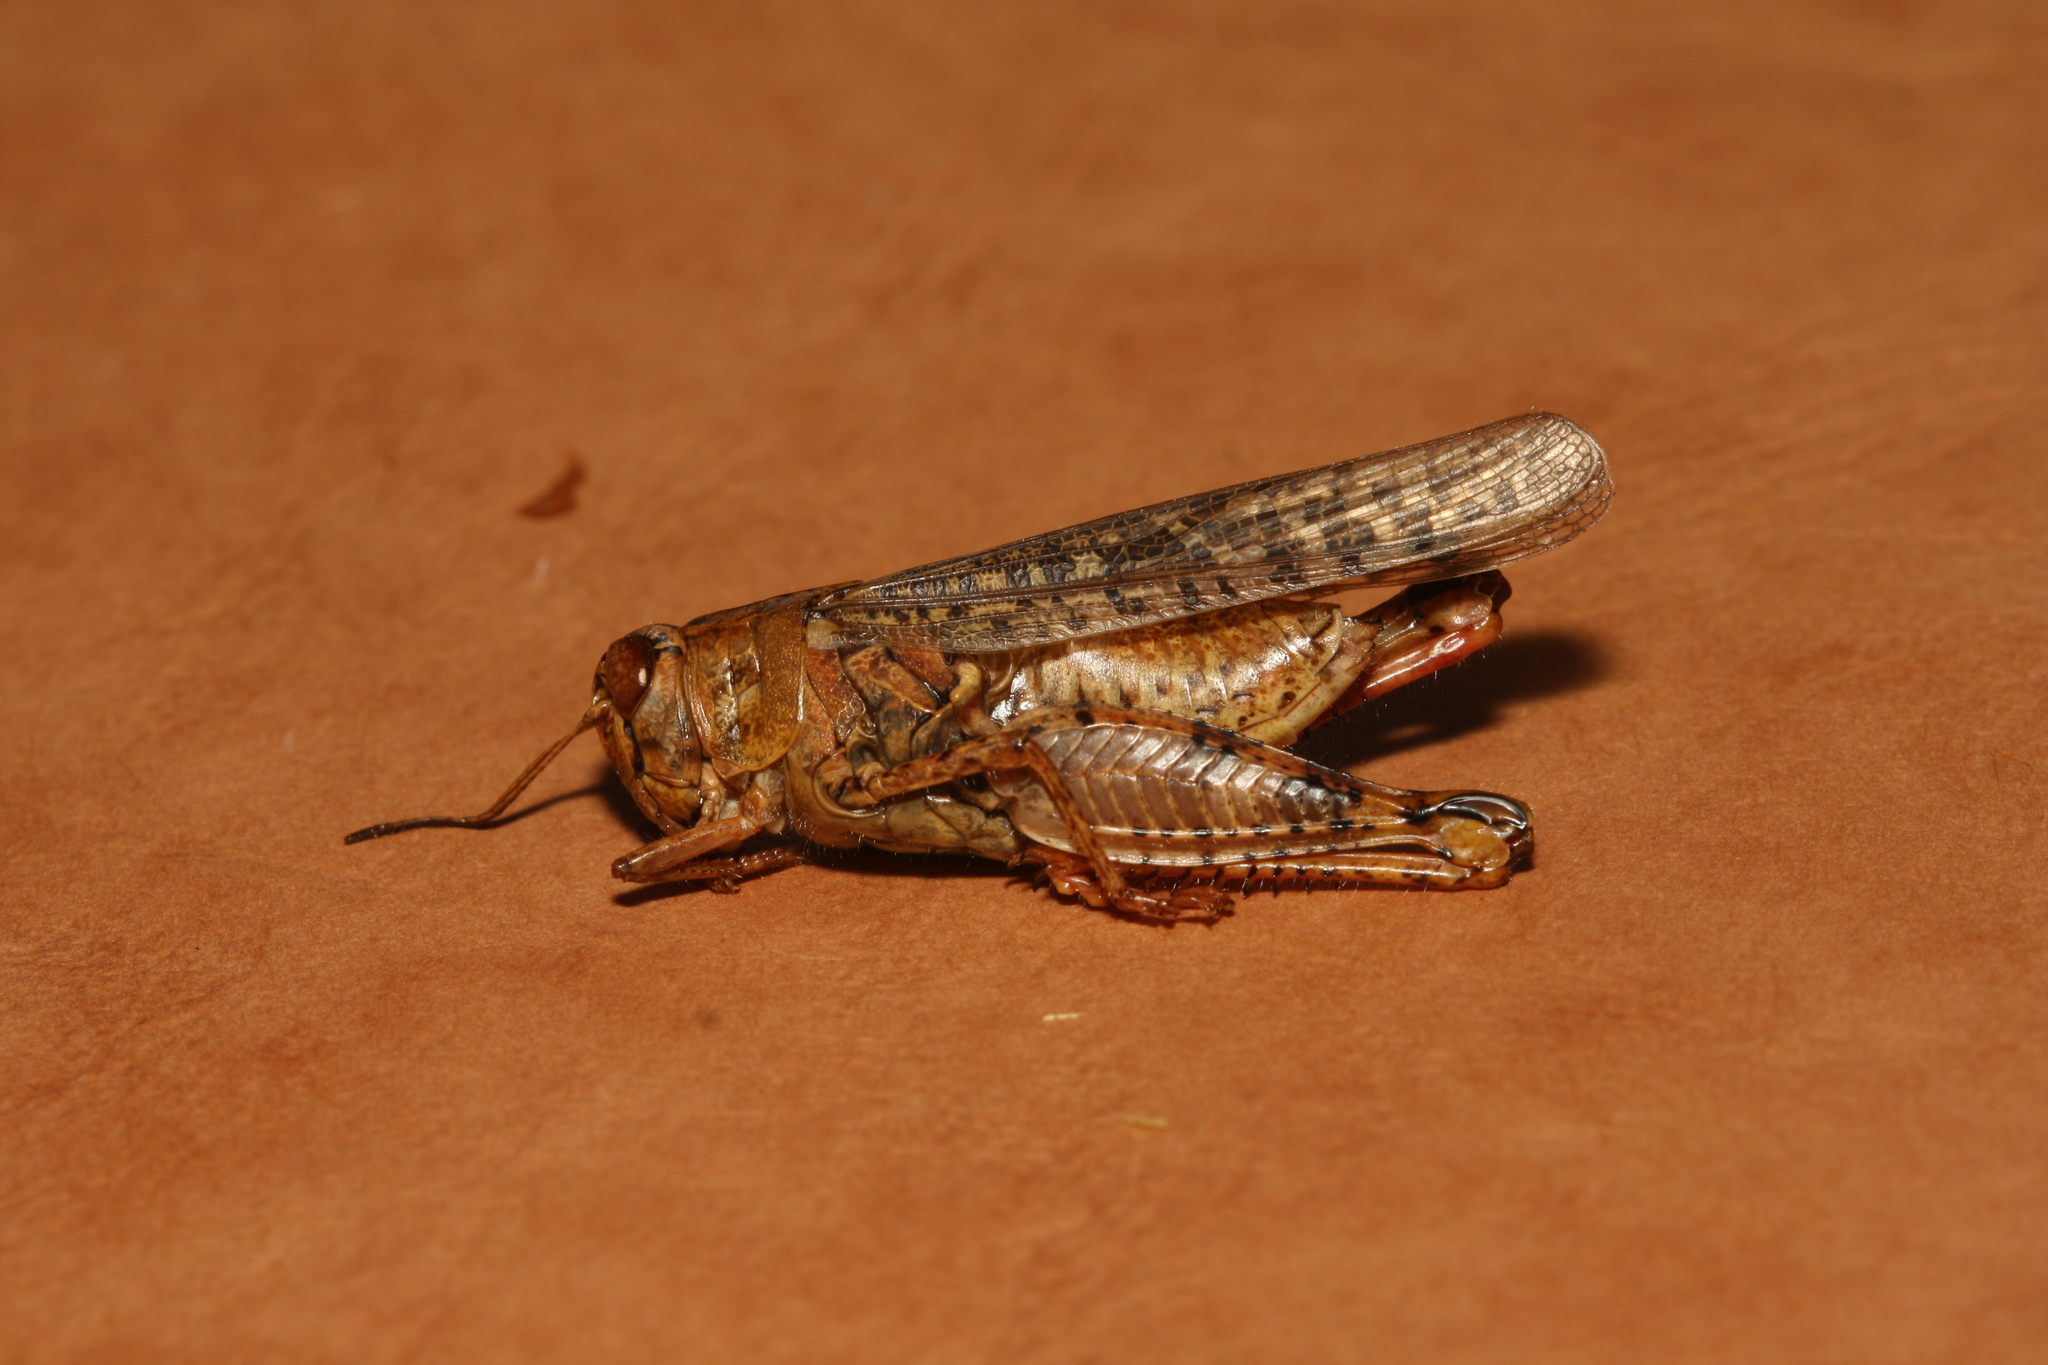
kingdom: Animalia
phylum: Arthropoda
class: Insecta
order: Orthoptera
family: Acrididae
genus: Calliptamus
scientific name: Calliptamus italicus
